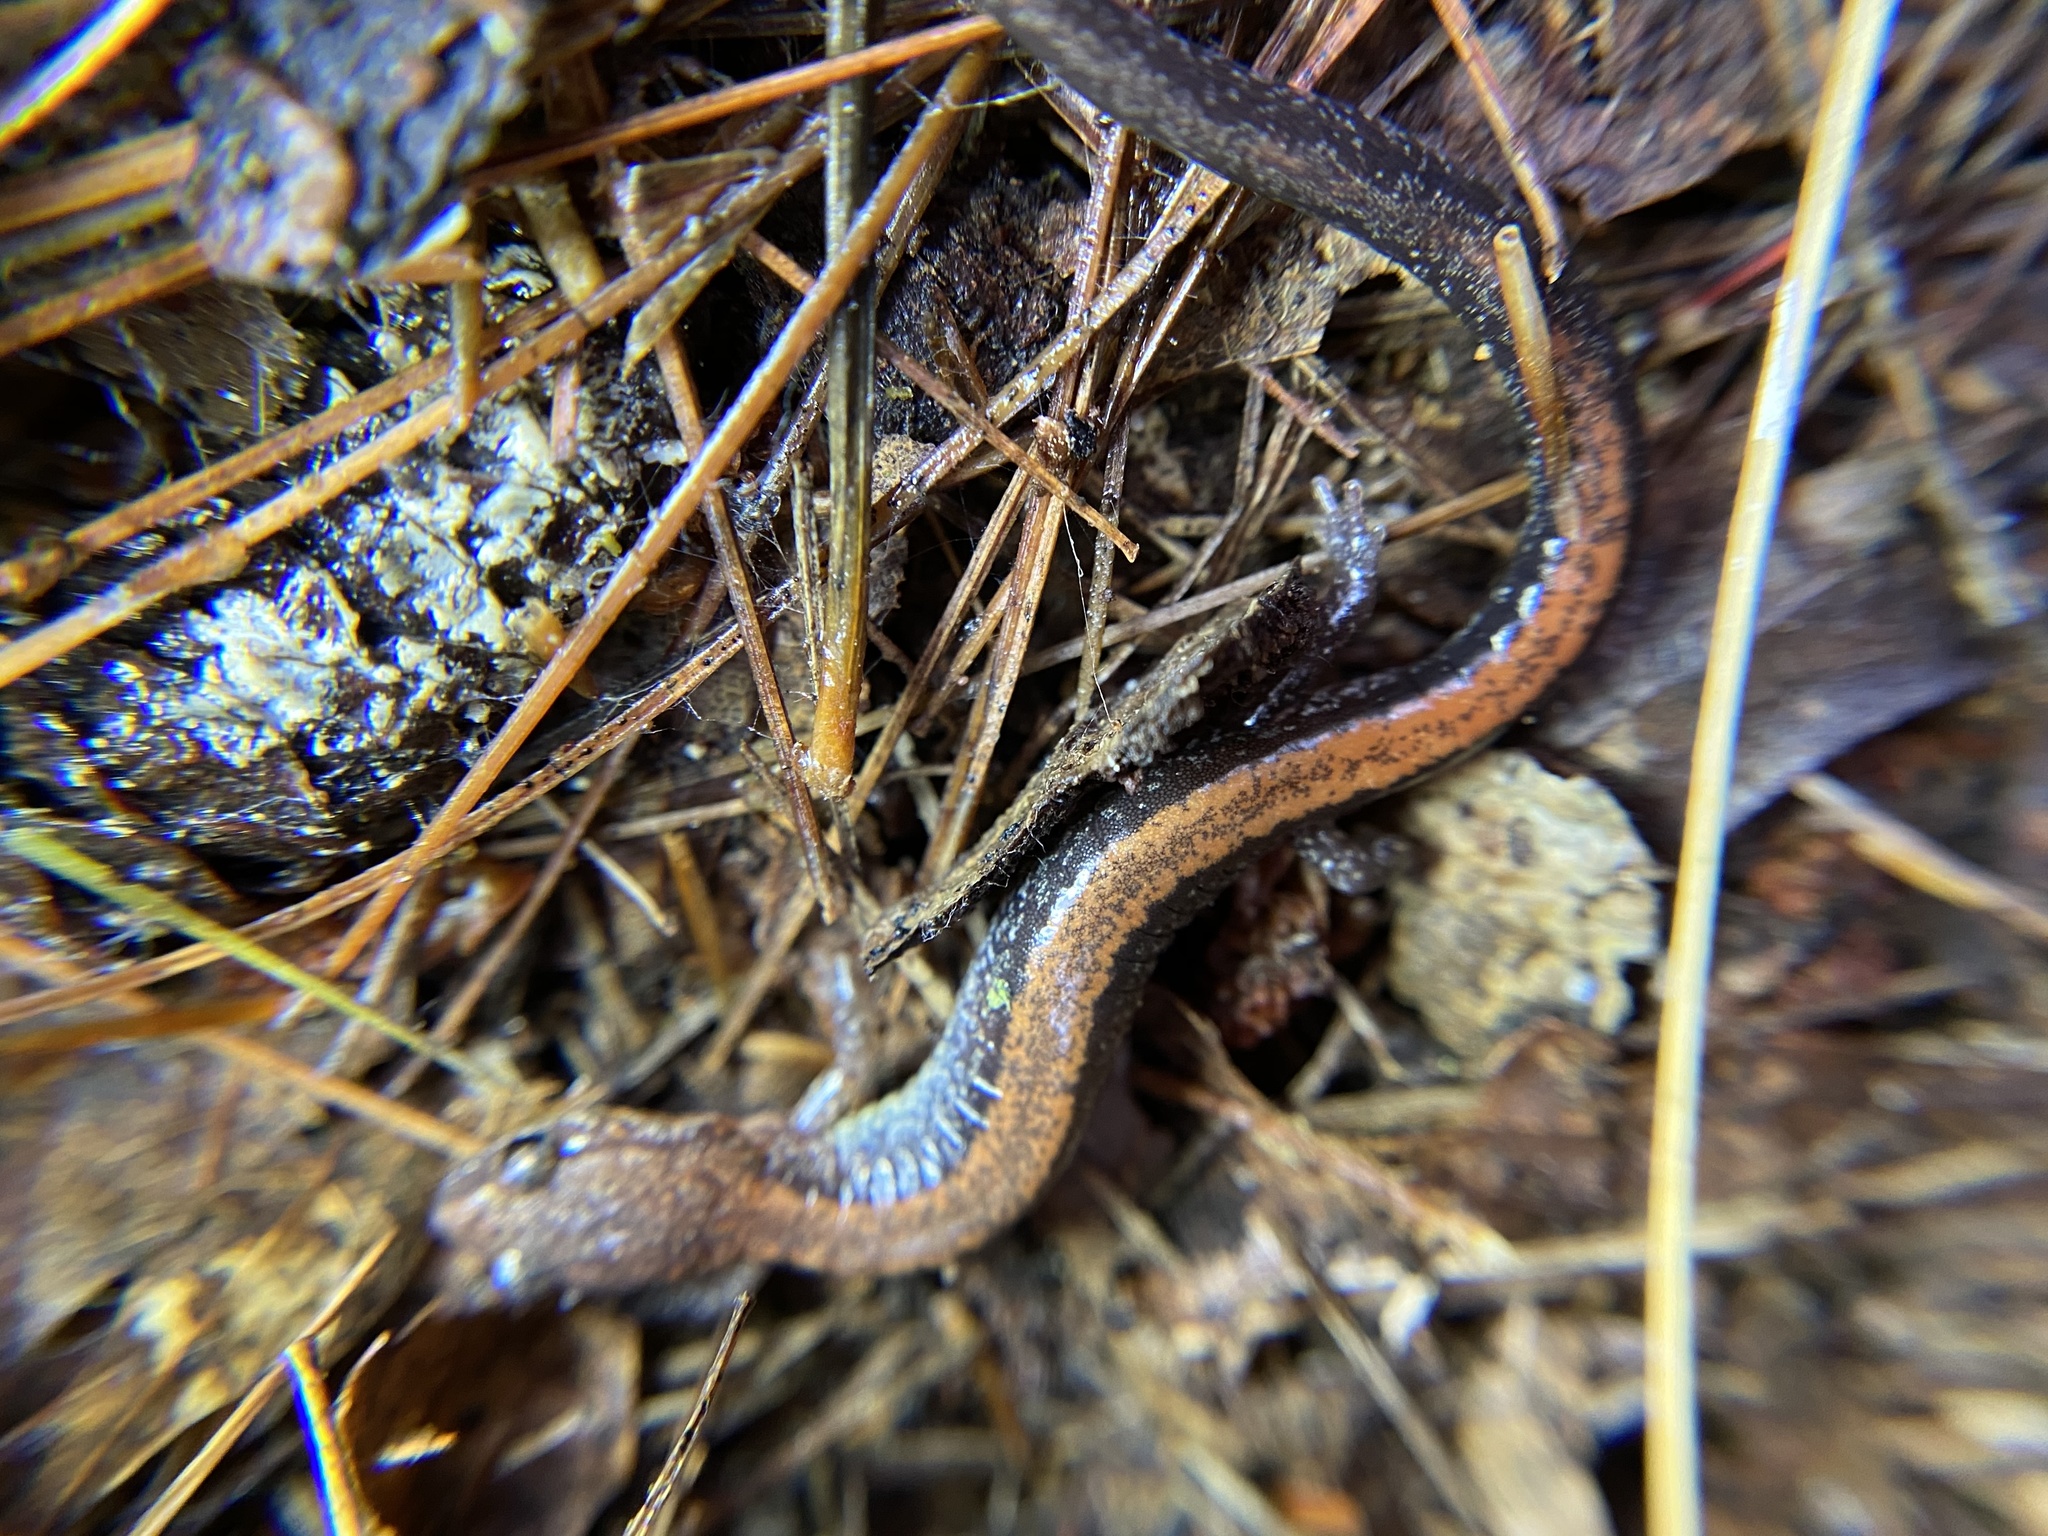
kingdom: Animalia
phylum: Chordata
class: Amphibia
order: Caudata
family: Plethodontidae
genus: Plethodon
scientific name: Plethodon cinereus
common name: Redback salamander
